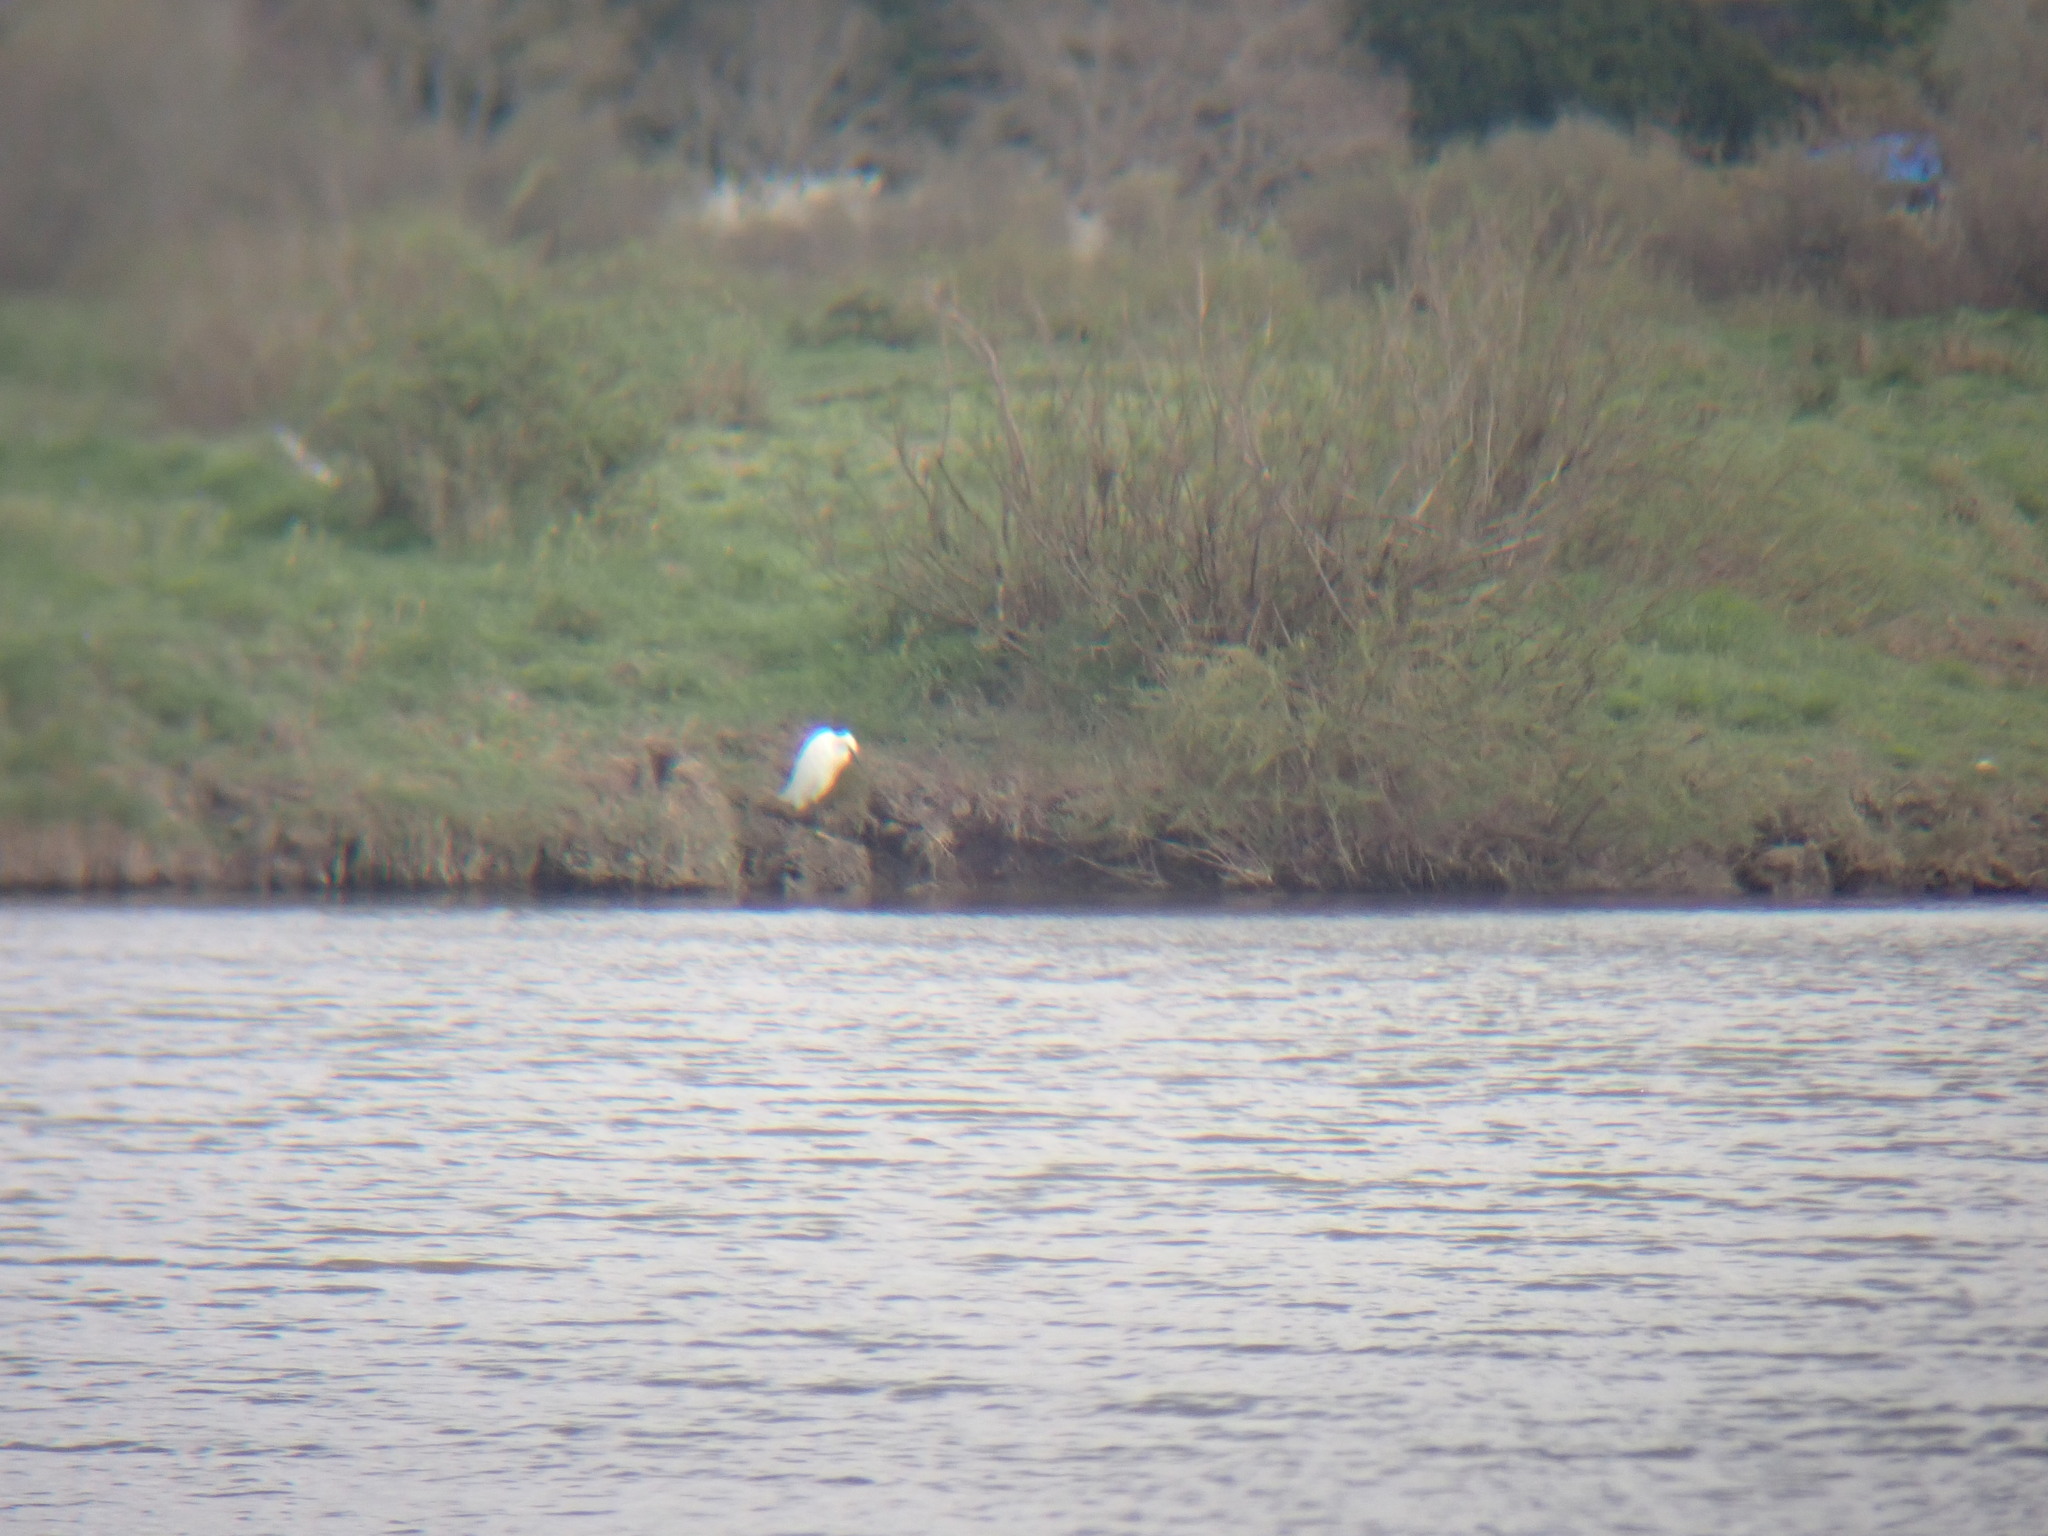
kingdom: Animalia
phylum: Chordata
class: Aves
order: Pelecaniformes
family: Ardeidae
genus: Egretta
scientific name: Egretta garzetta
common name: Little egret
